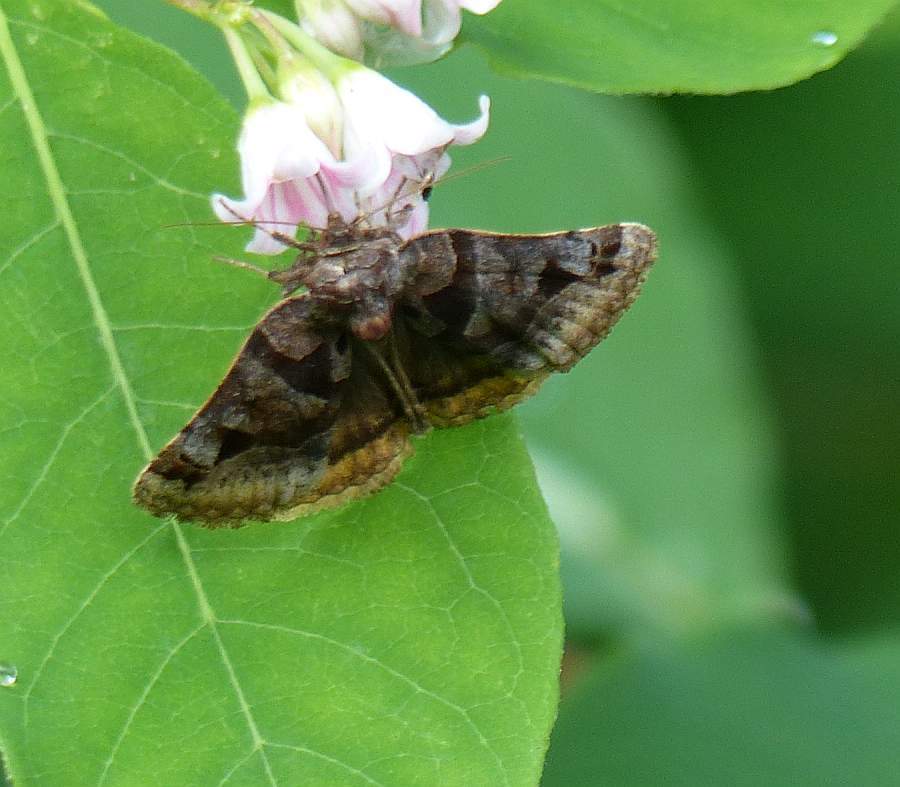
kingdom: Animalia
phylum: Arthropoda
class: Insecta
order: Lepidoptera
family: Erebidae
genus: Euclidia
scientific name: Euclidia cuspidea
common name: Toothed somberwing
